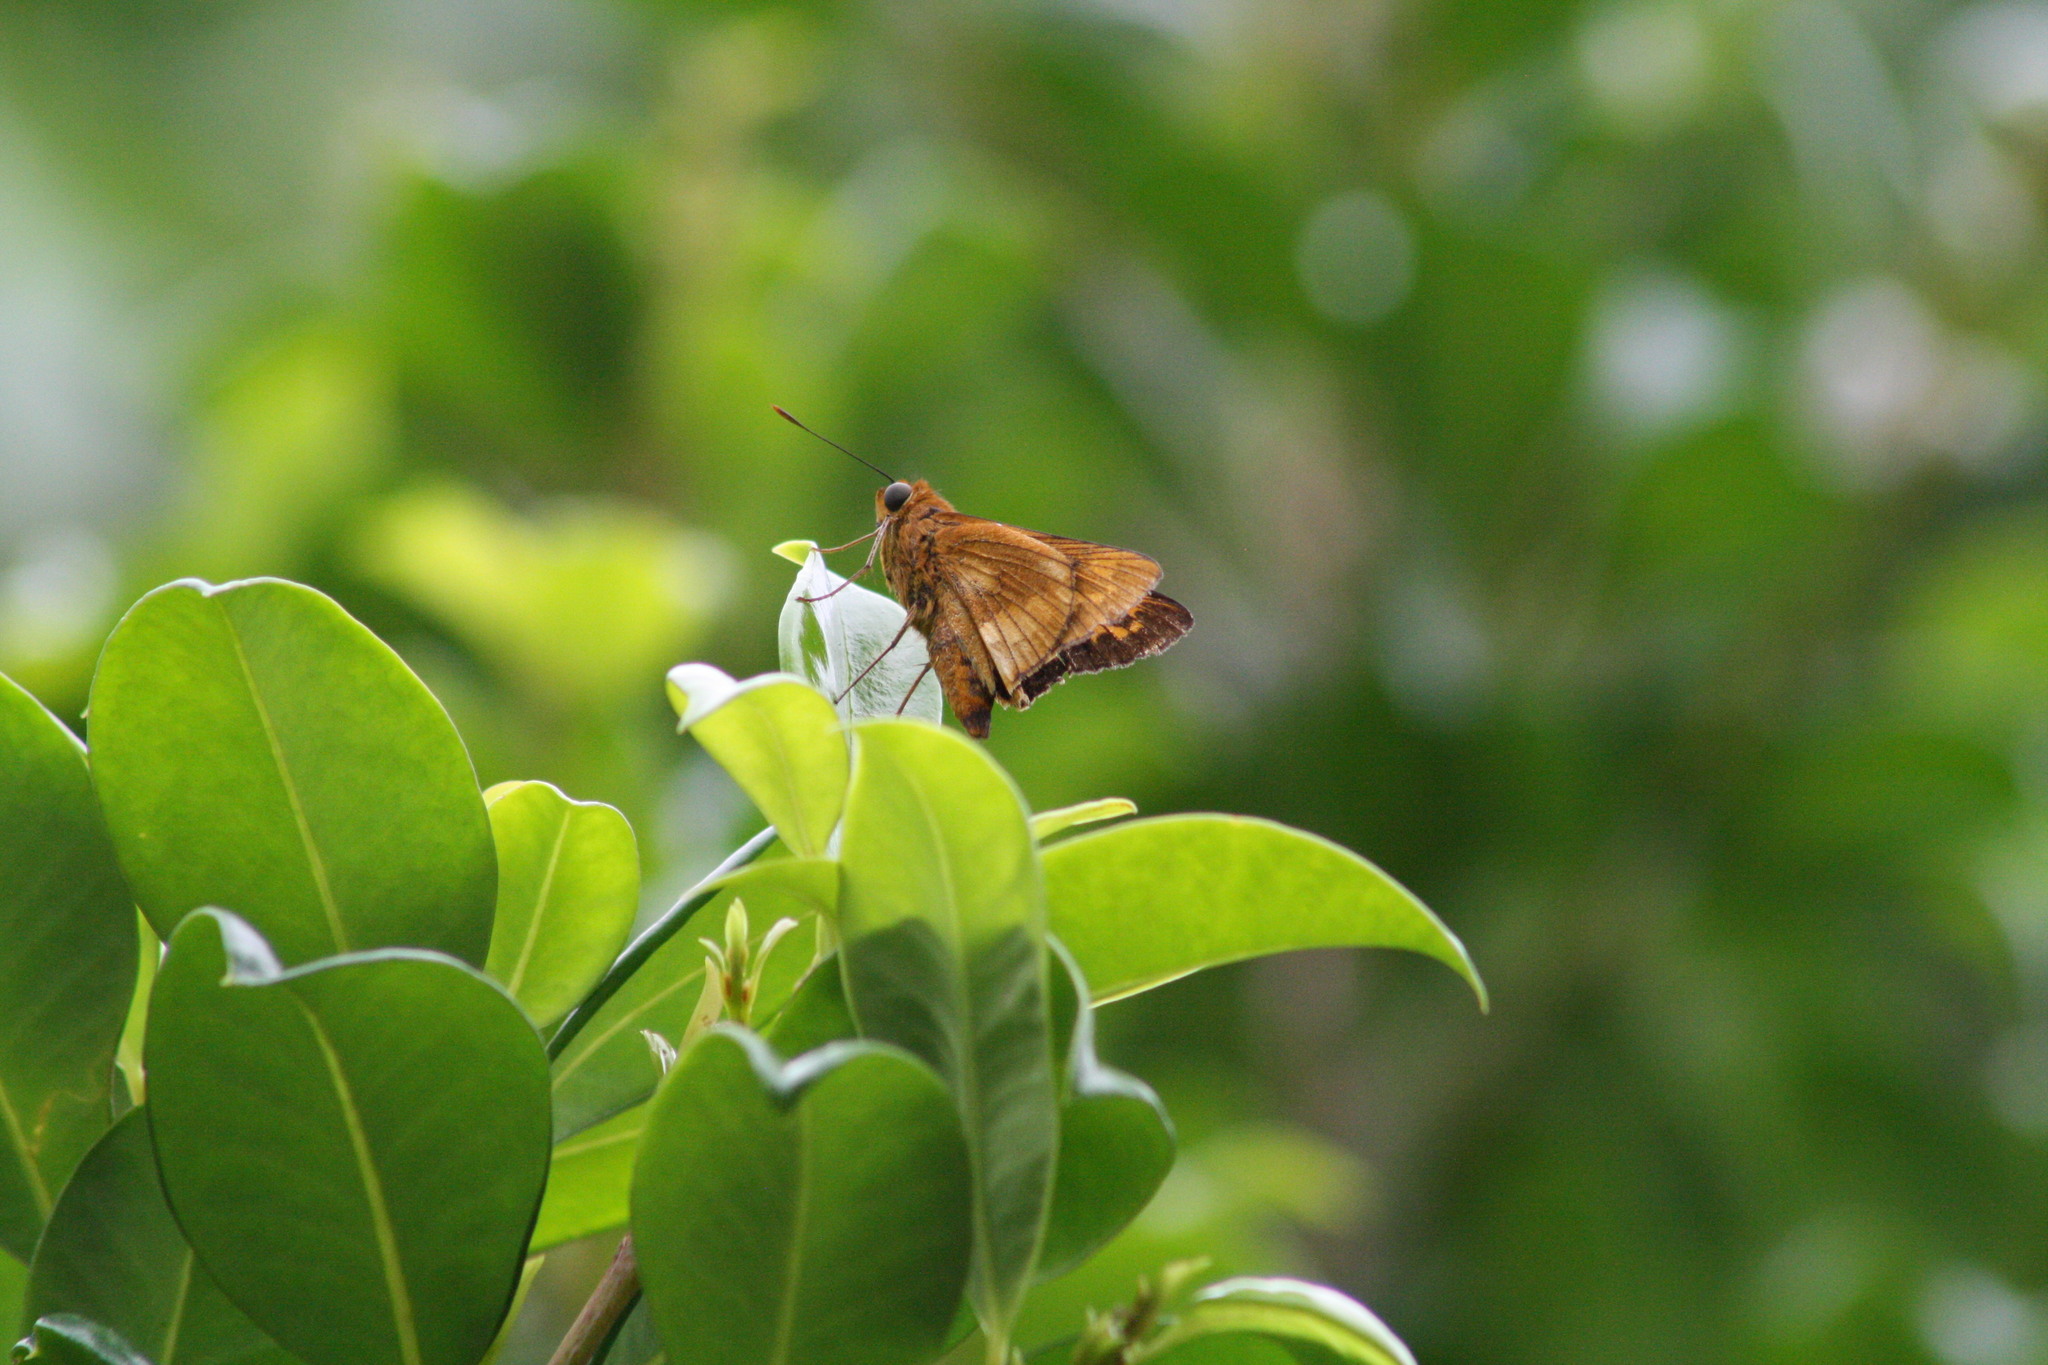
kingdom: Animalia
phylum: Arthropoda
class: Insecta
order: Lepidoptera
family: Hesperiidae
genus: Cephrenes
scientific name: Cephrenes augiades
